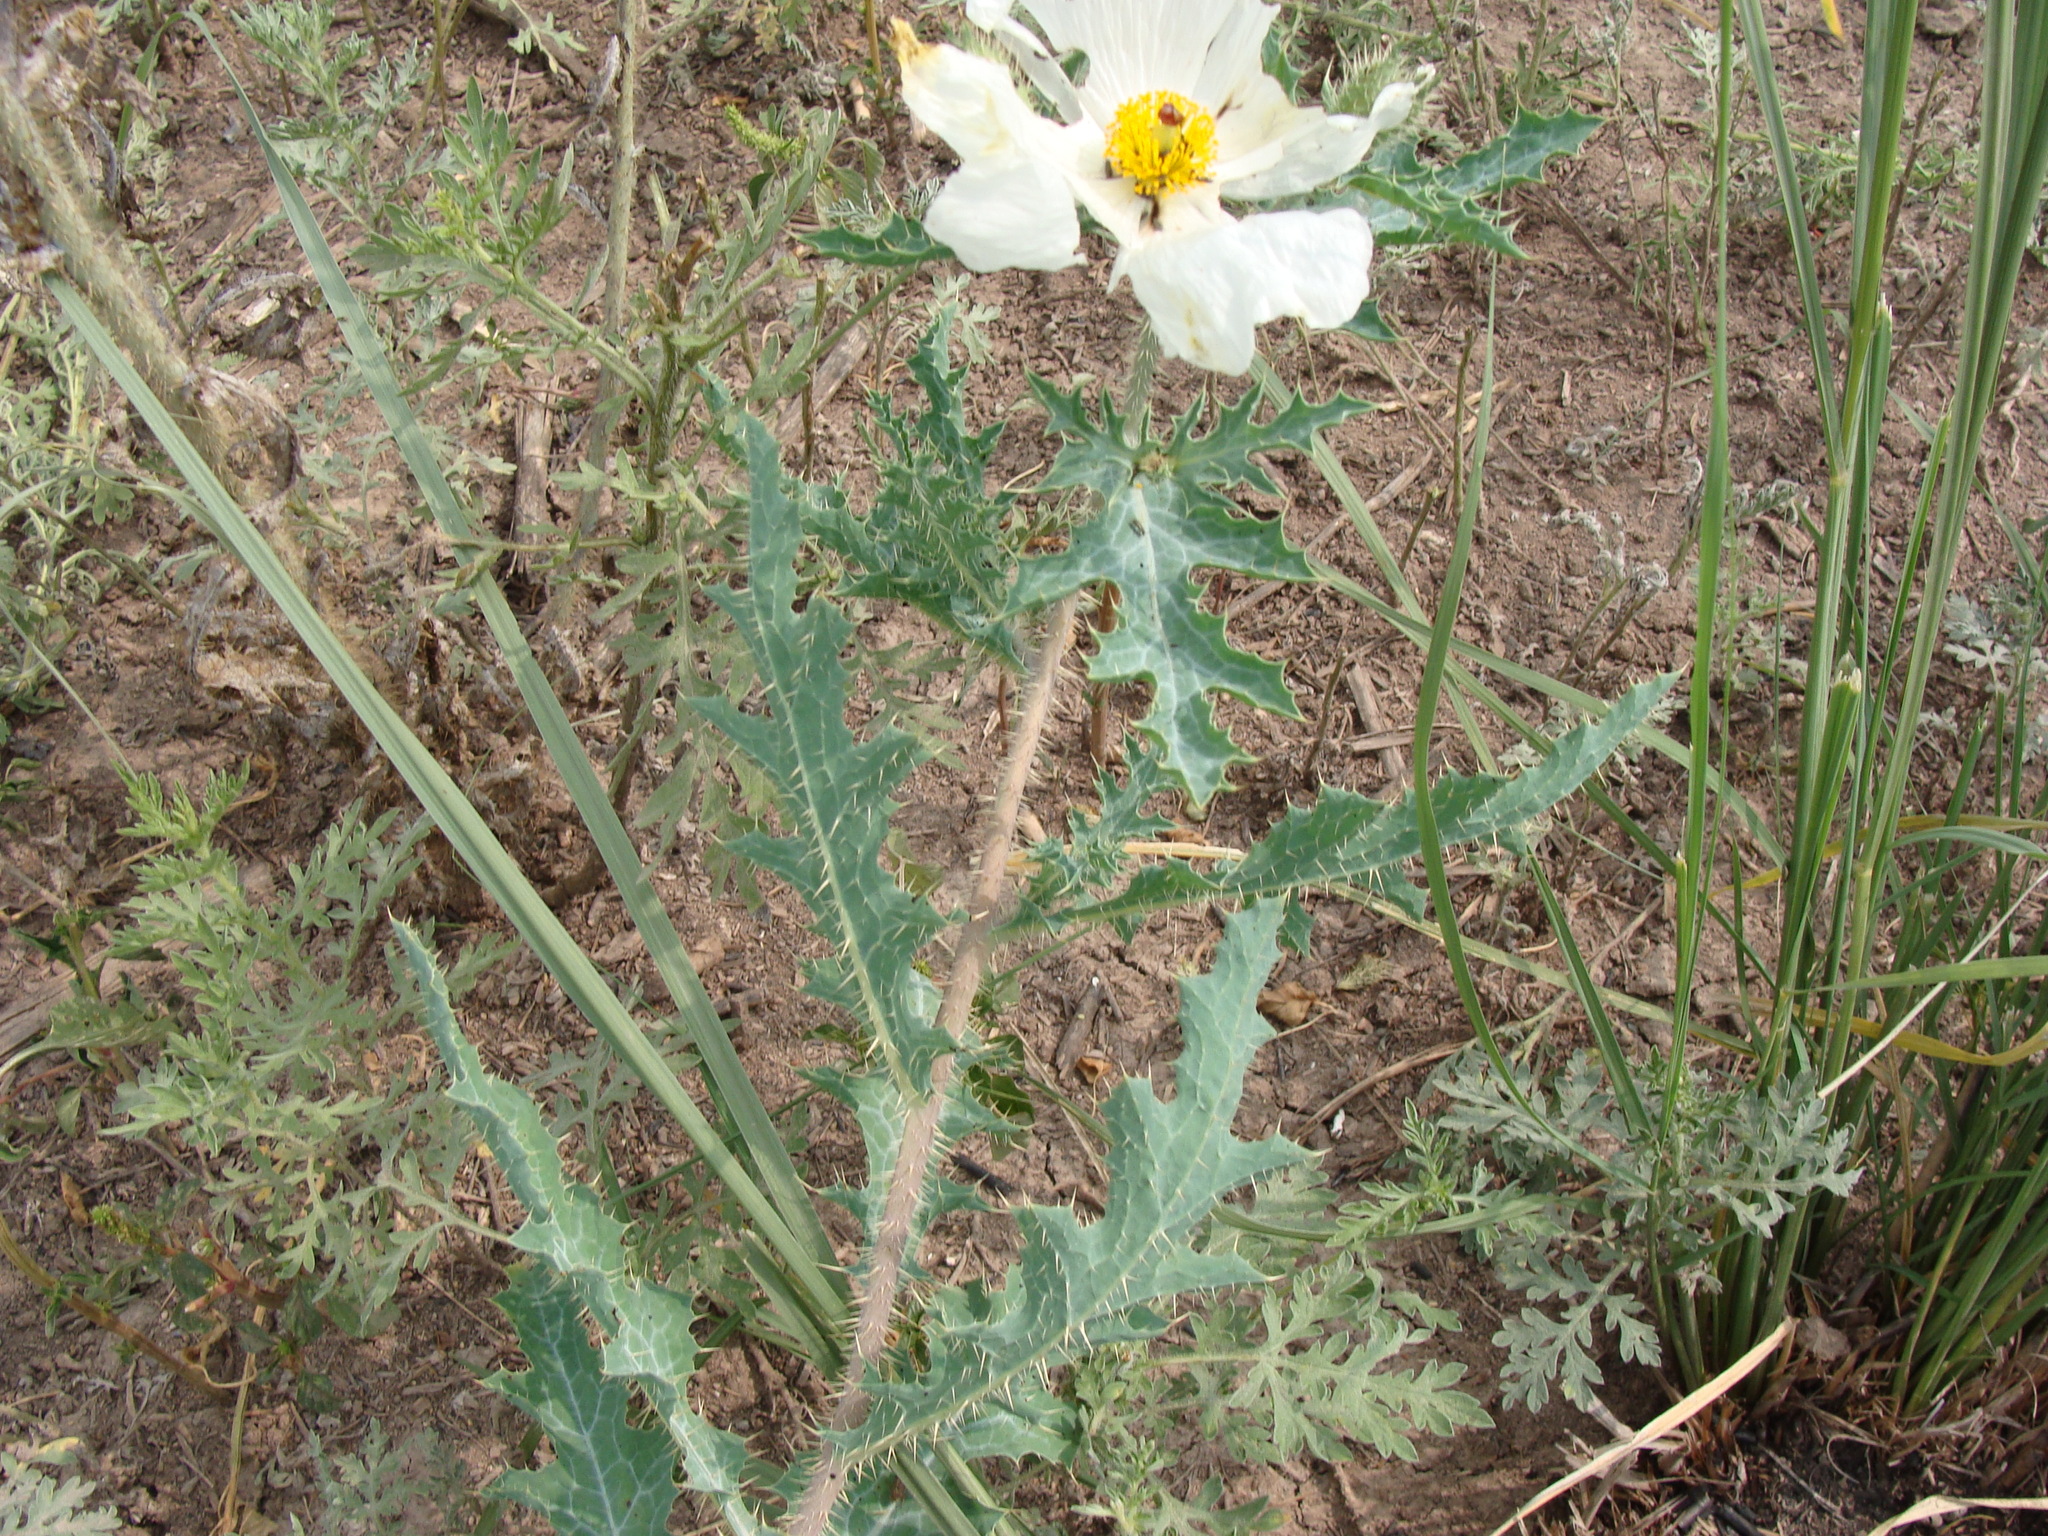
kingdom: Plantae
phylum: Tracheophyta
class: Magnoliopsida
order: Ranunculales
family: Papaveraceae
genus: Argemone
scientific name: Argemone pleiacantha
